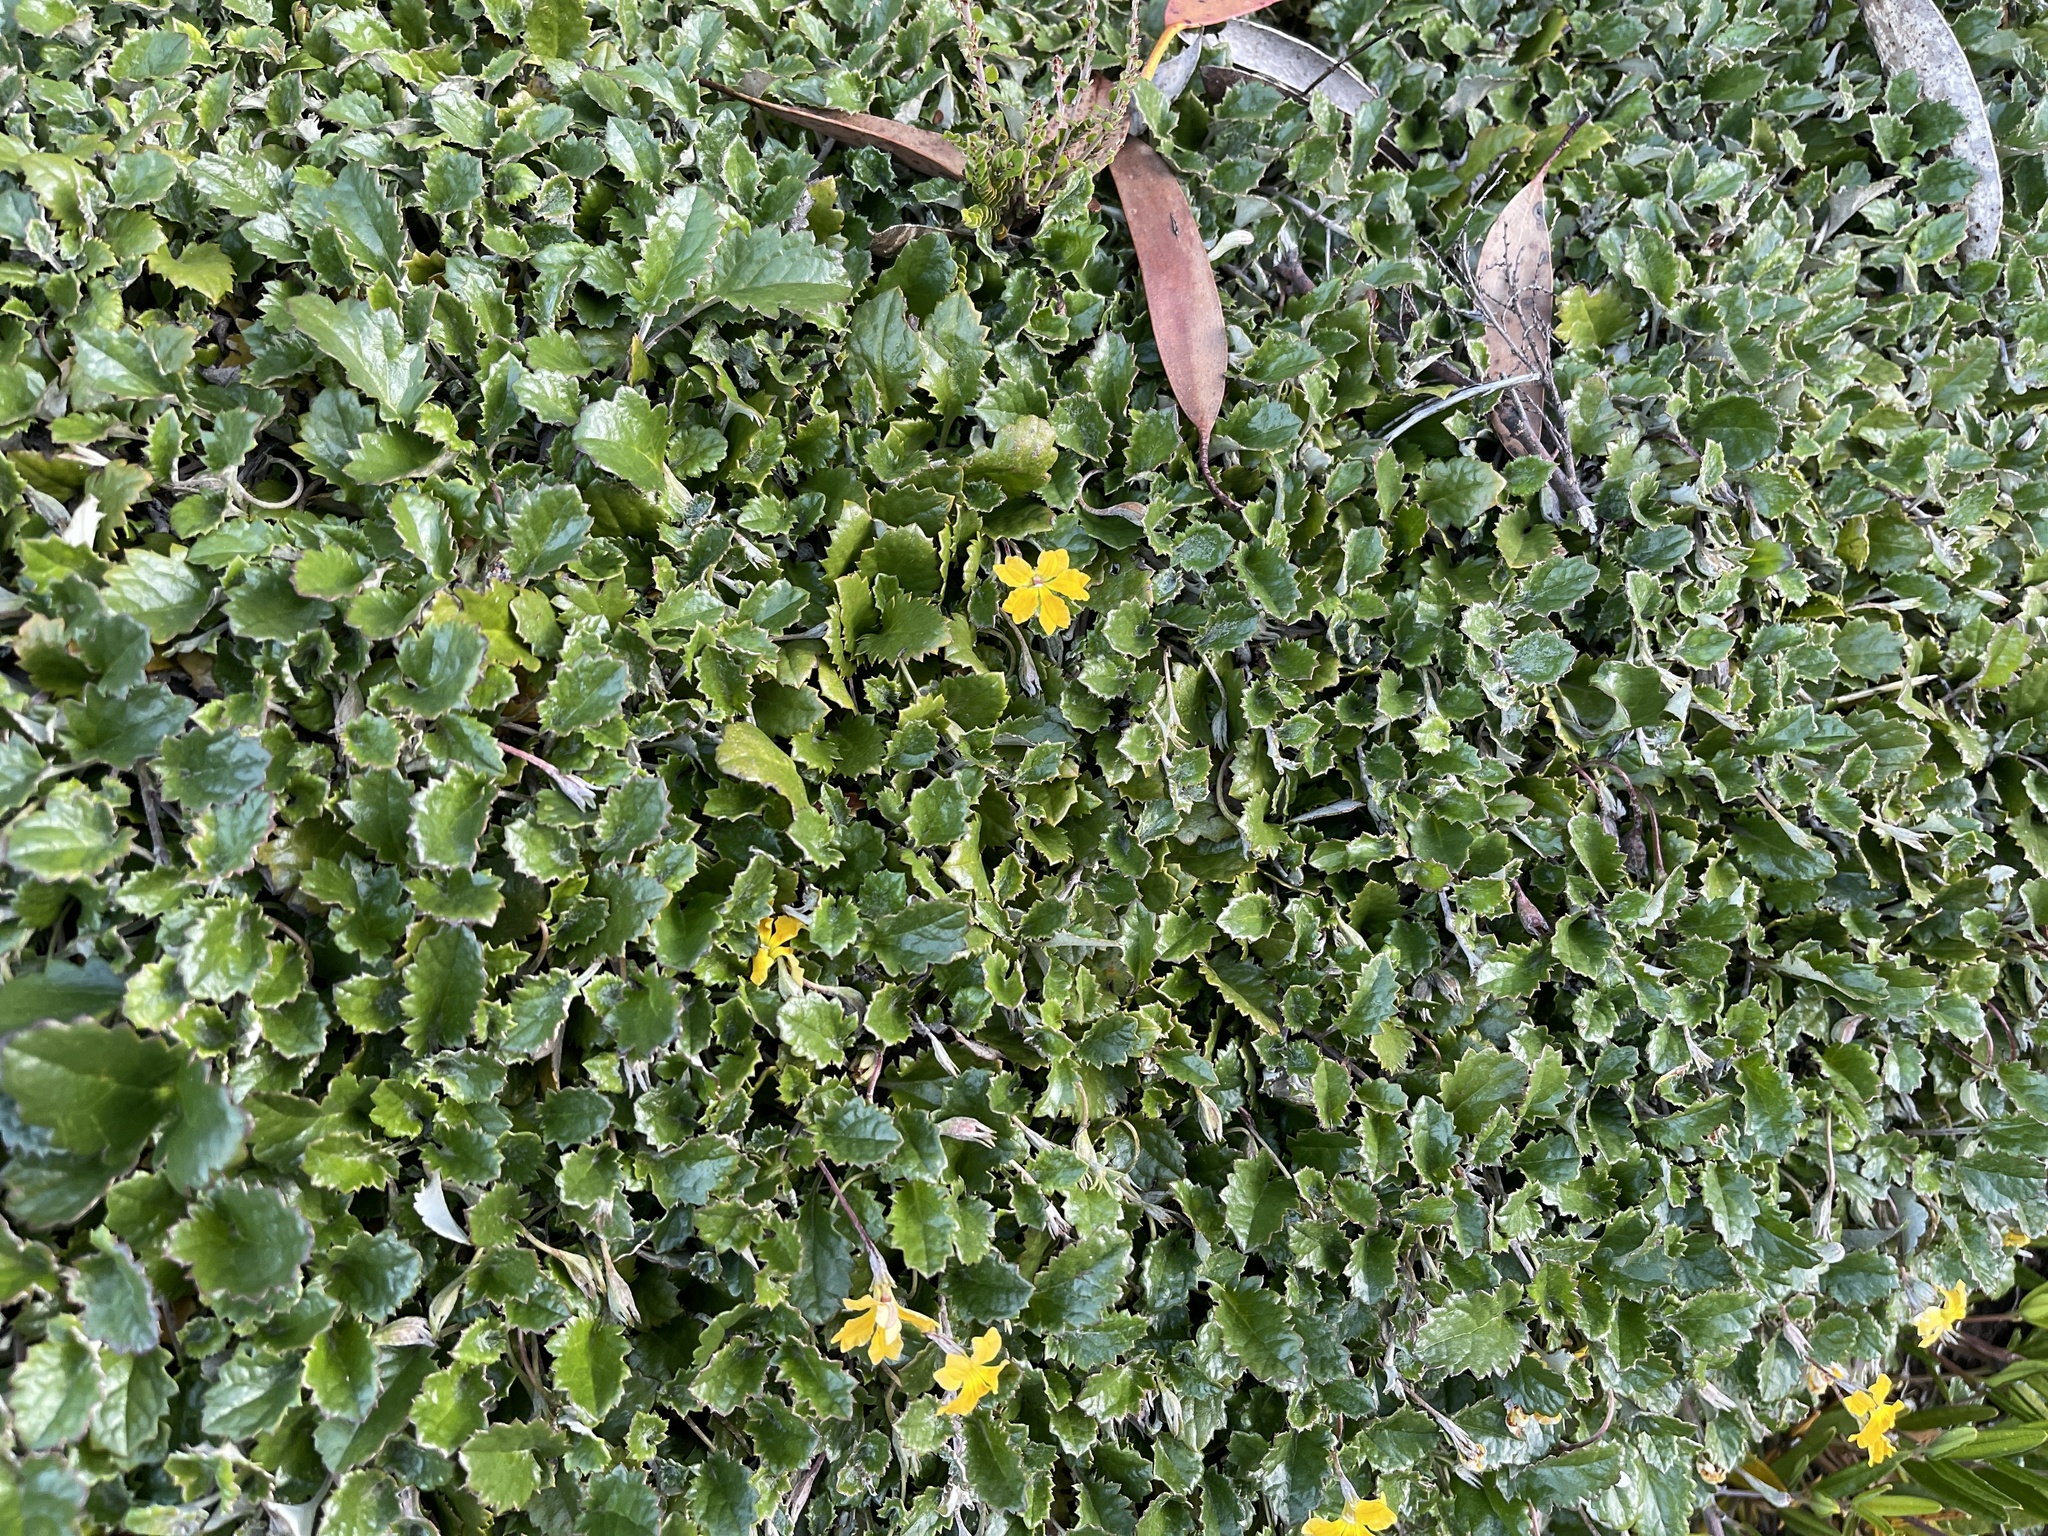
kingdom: Plantae
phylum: Tracheophyta
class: Magnoliopsida
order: Asterales
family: Goodeniaceae
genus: Goodenia
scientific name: Goodenia hederacea
